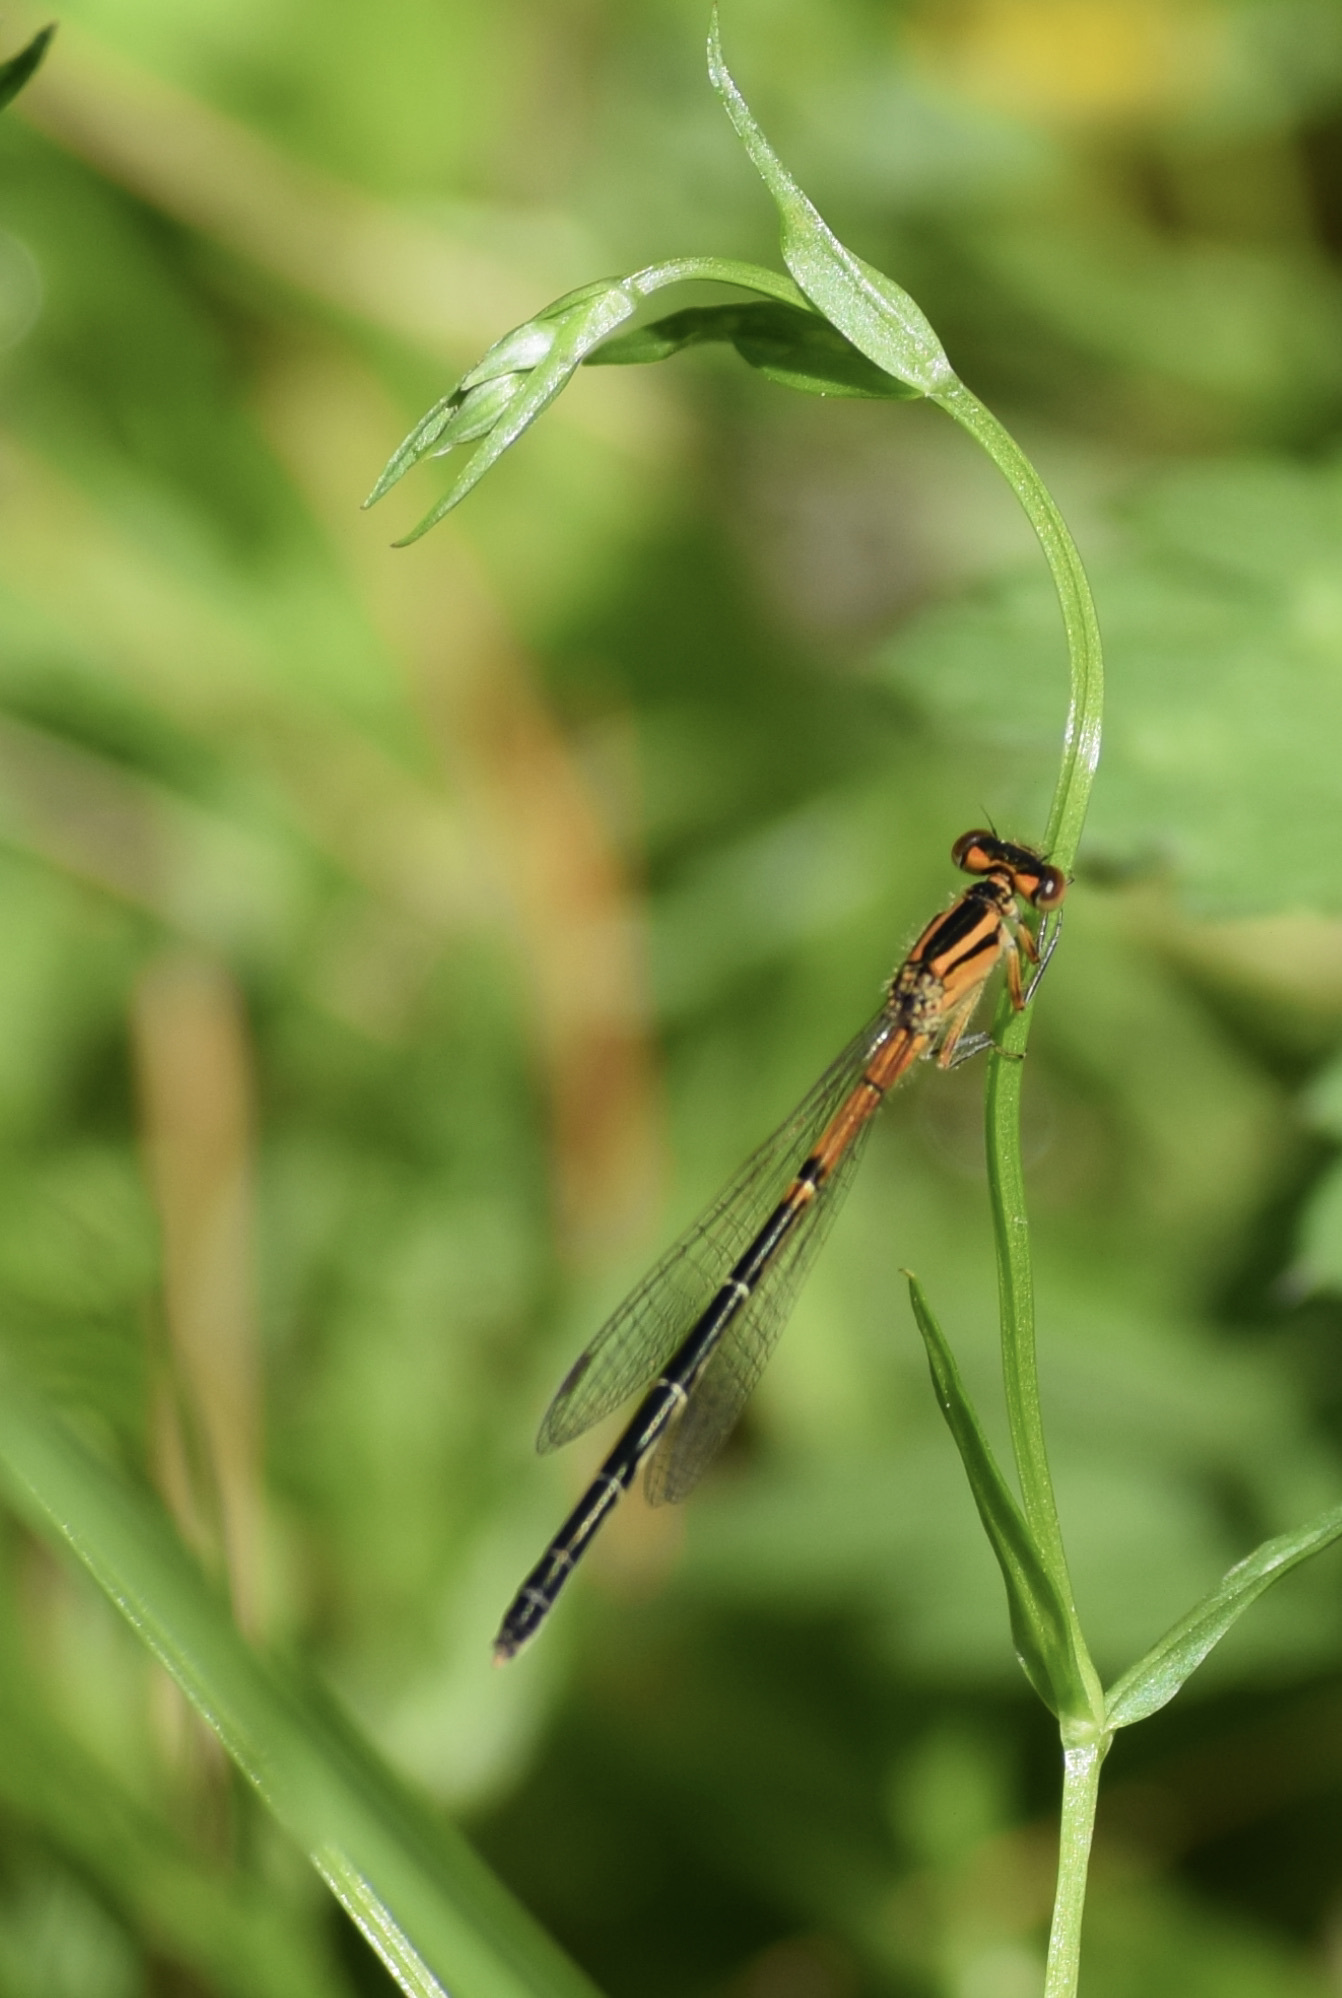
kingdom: Animalia
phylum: Arthropoda
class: Insecta
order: Odonata
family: Coenagrionidae
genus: Ischnura
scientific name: Ischnura verticalis
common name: Eastern forktail
